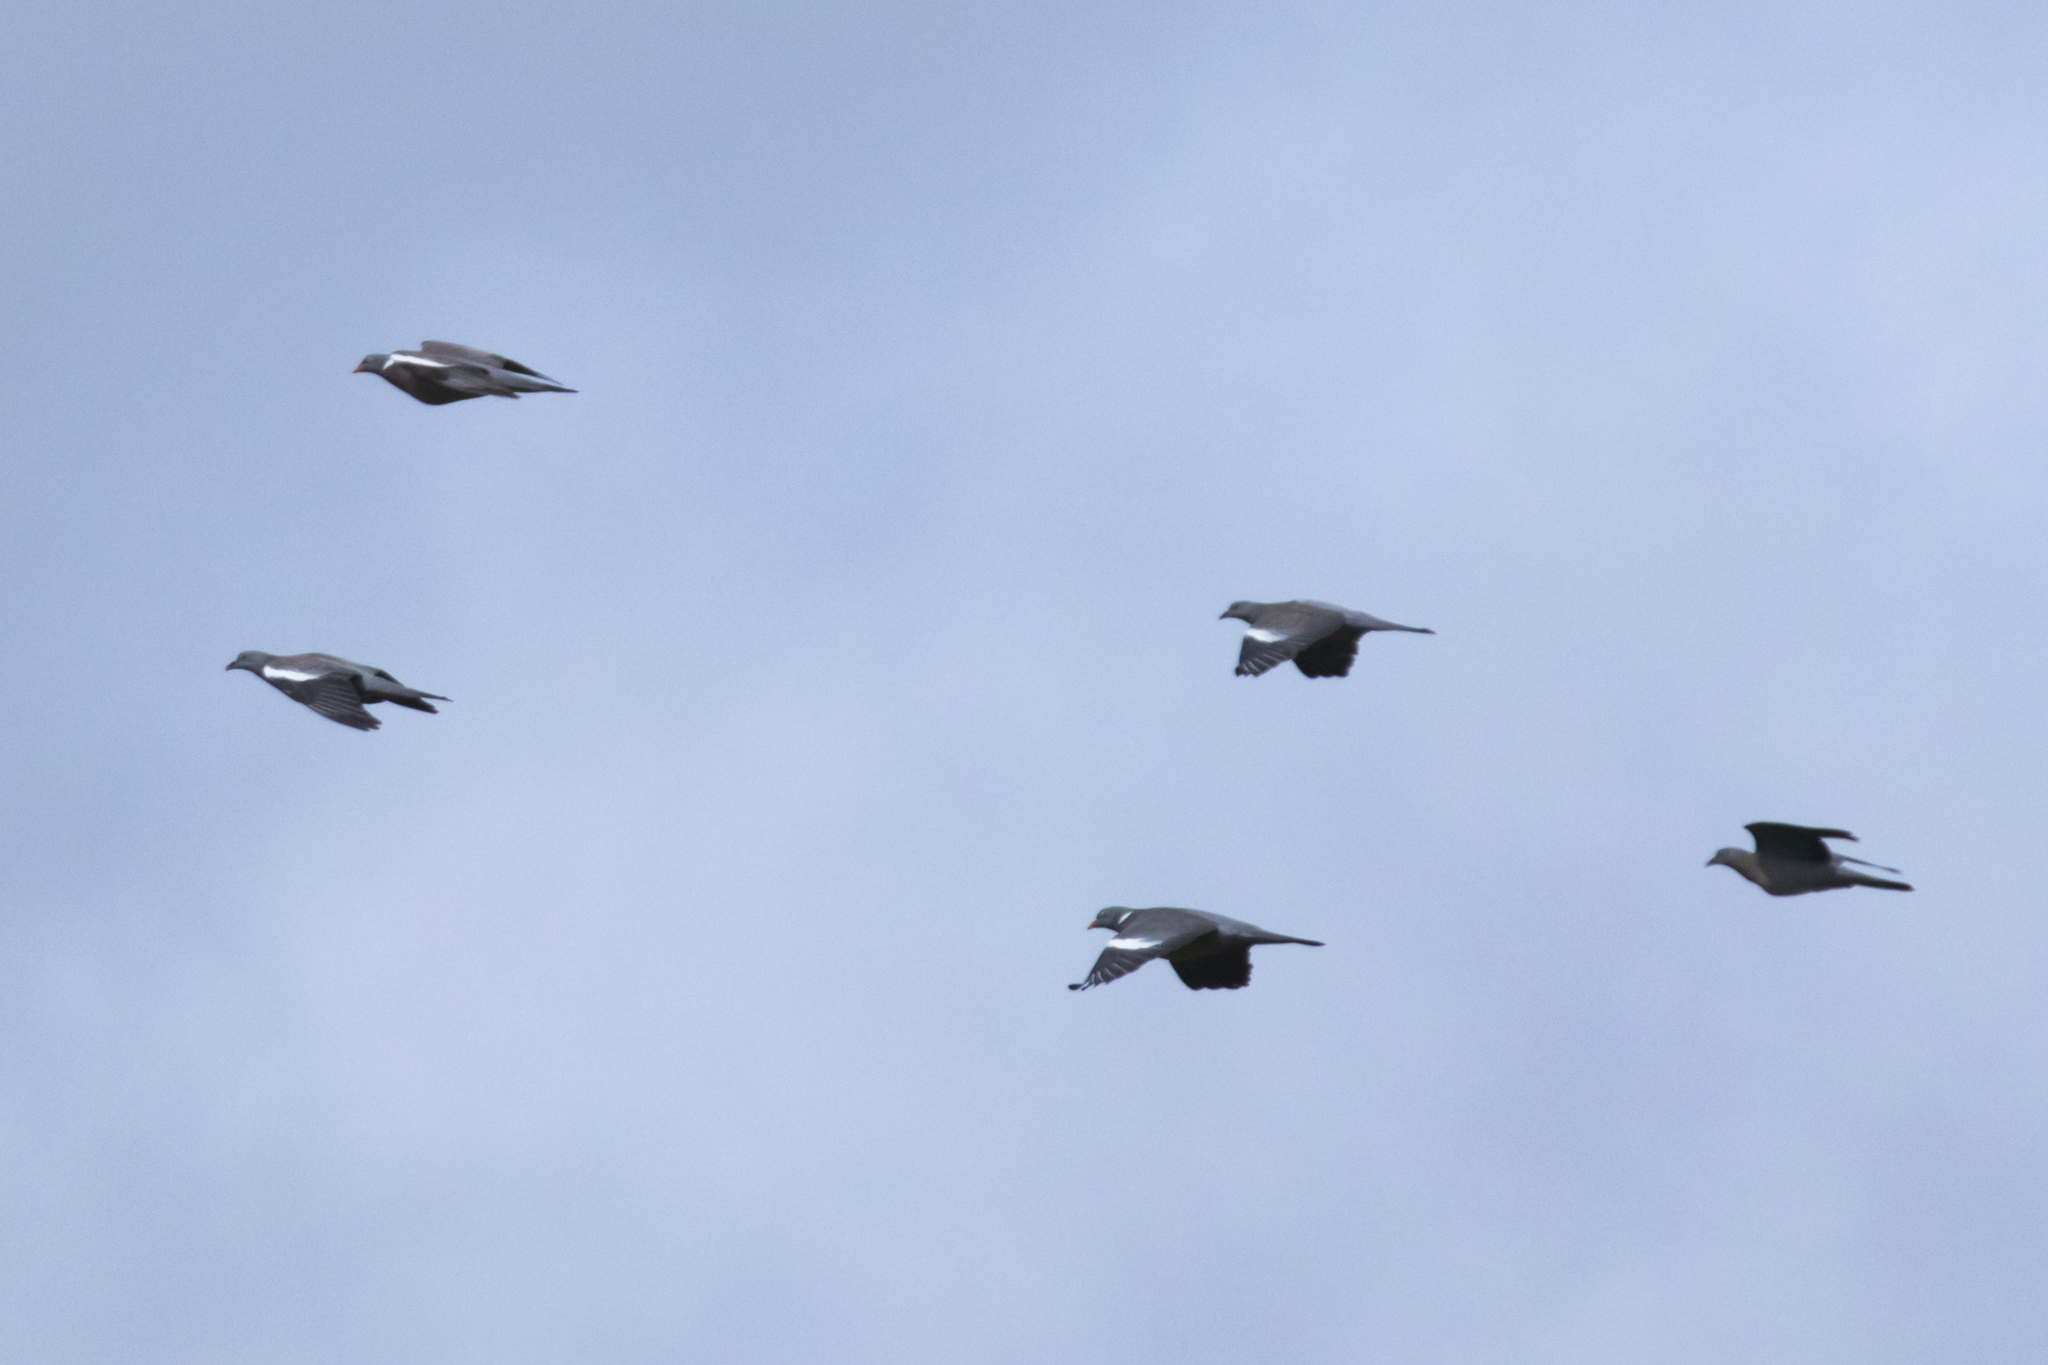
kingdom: Animalia
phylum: Chordata
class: Aves
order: Columbiformes
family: Columbidae
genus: Columba
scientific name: Columba palumbus
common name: Common wood pigeon
